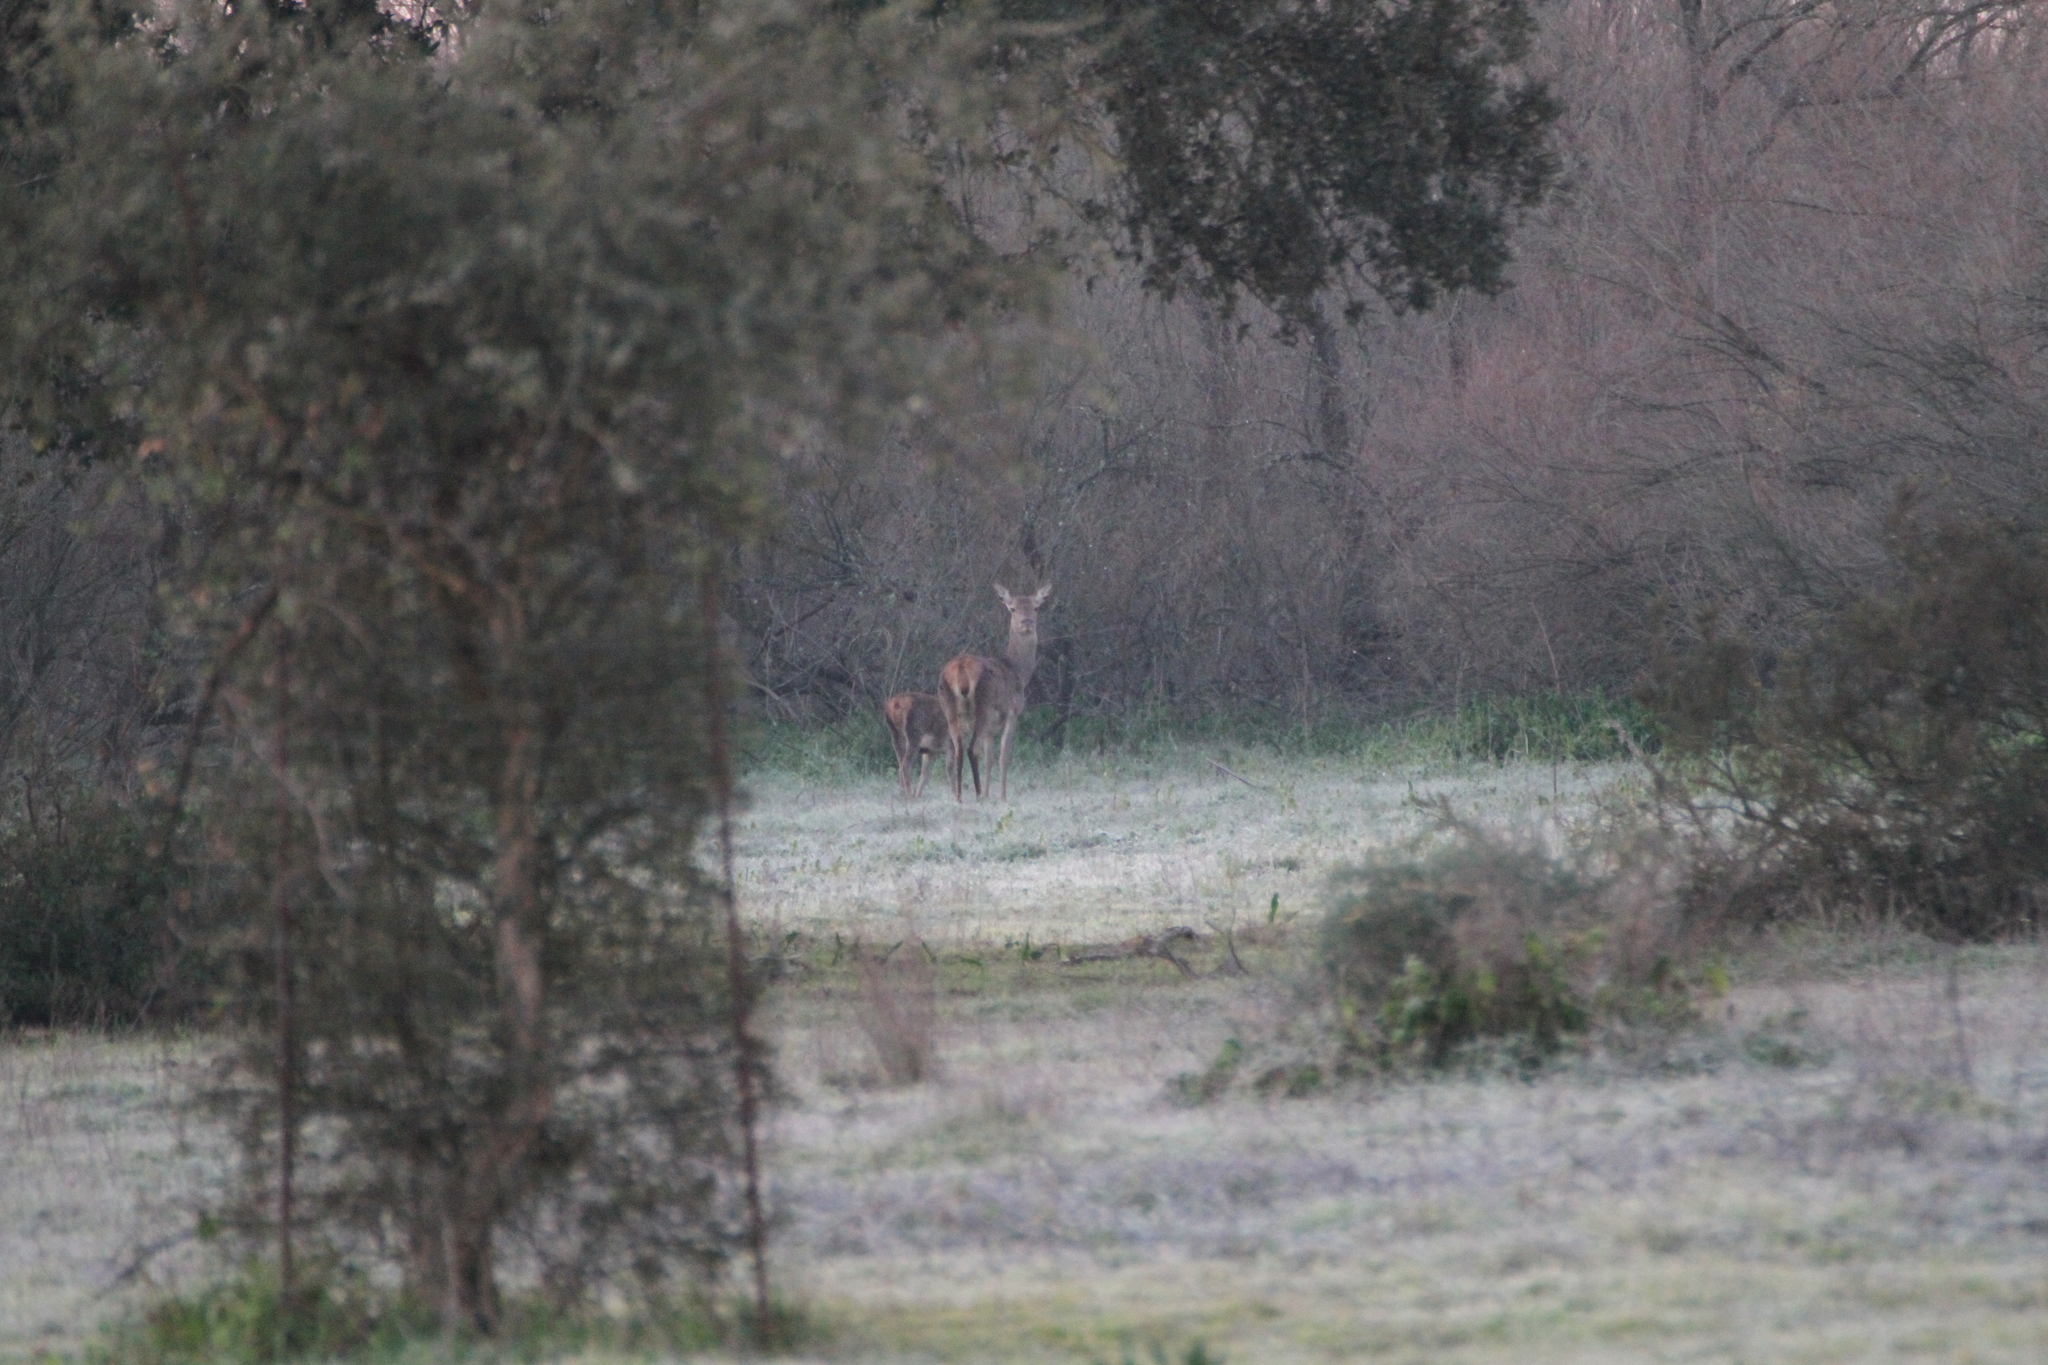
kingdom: Animalia
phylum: Chordata
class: Mammalia
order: Artiodactyla
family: Cervidae
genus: Cervus
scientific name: Cervus elaphus
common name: Red deer
